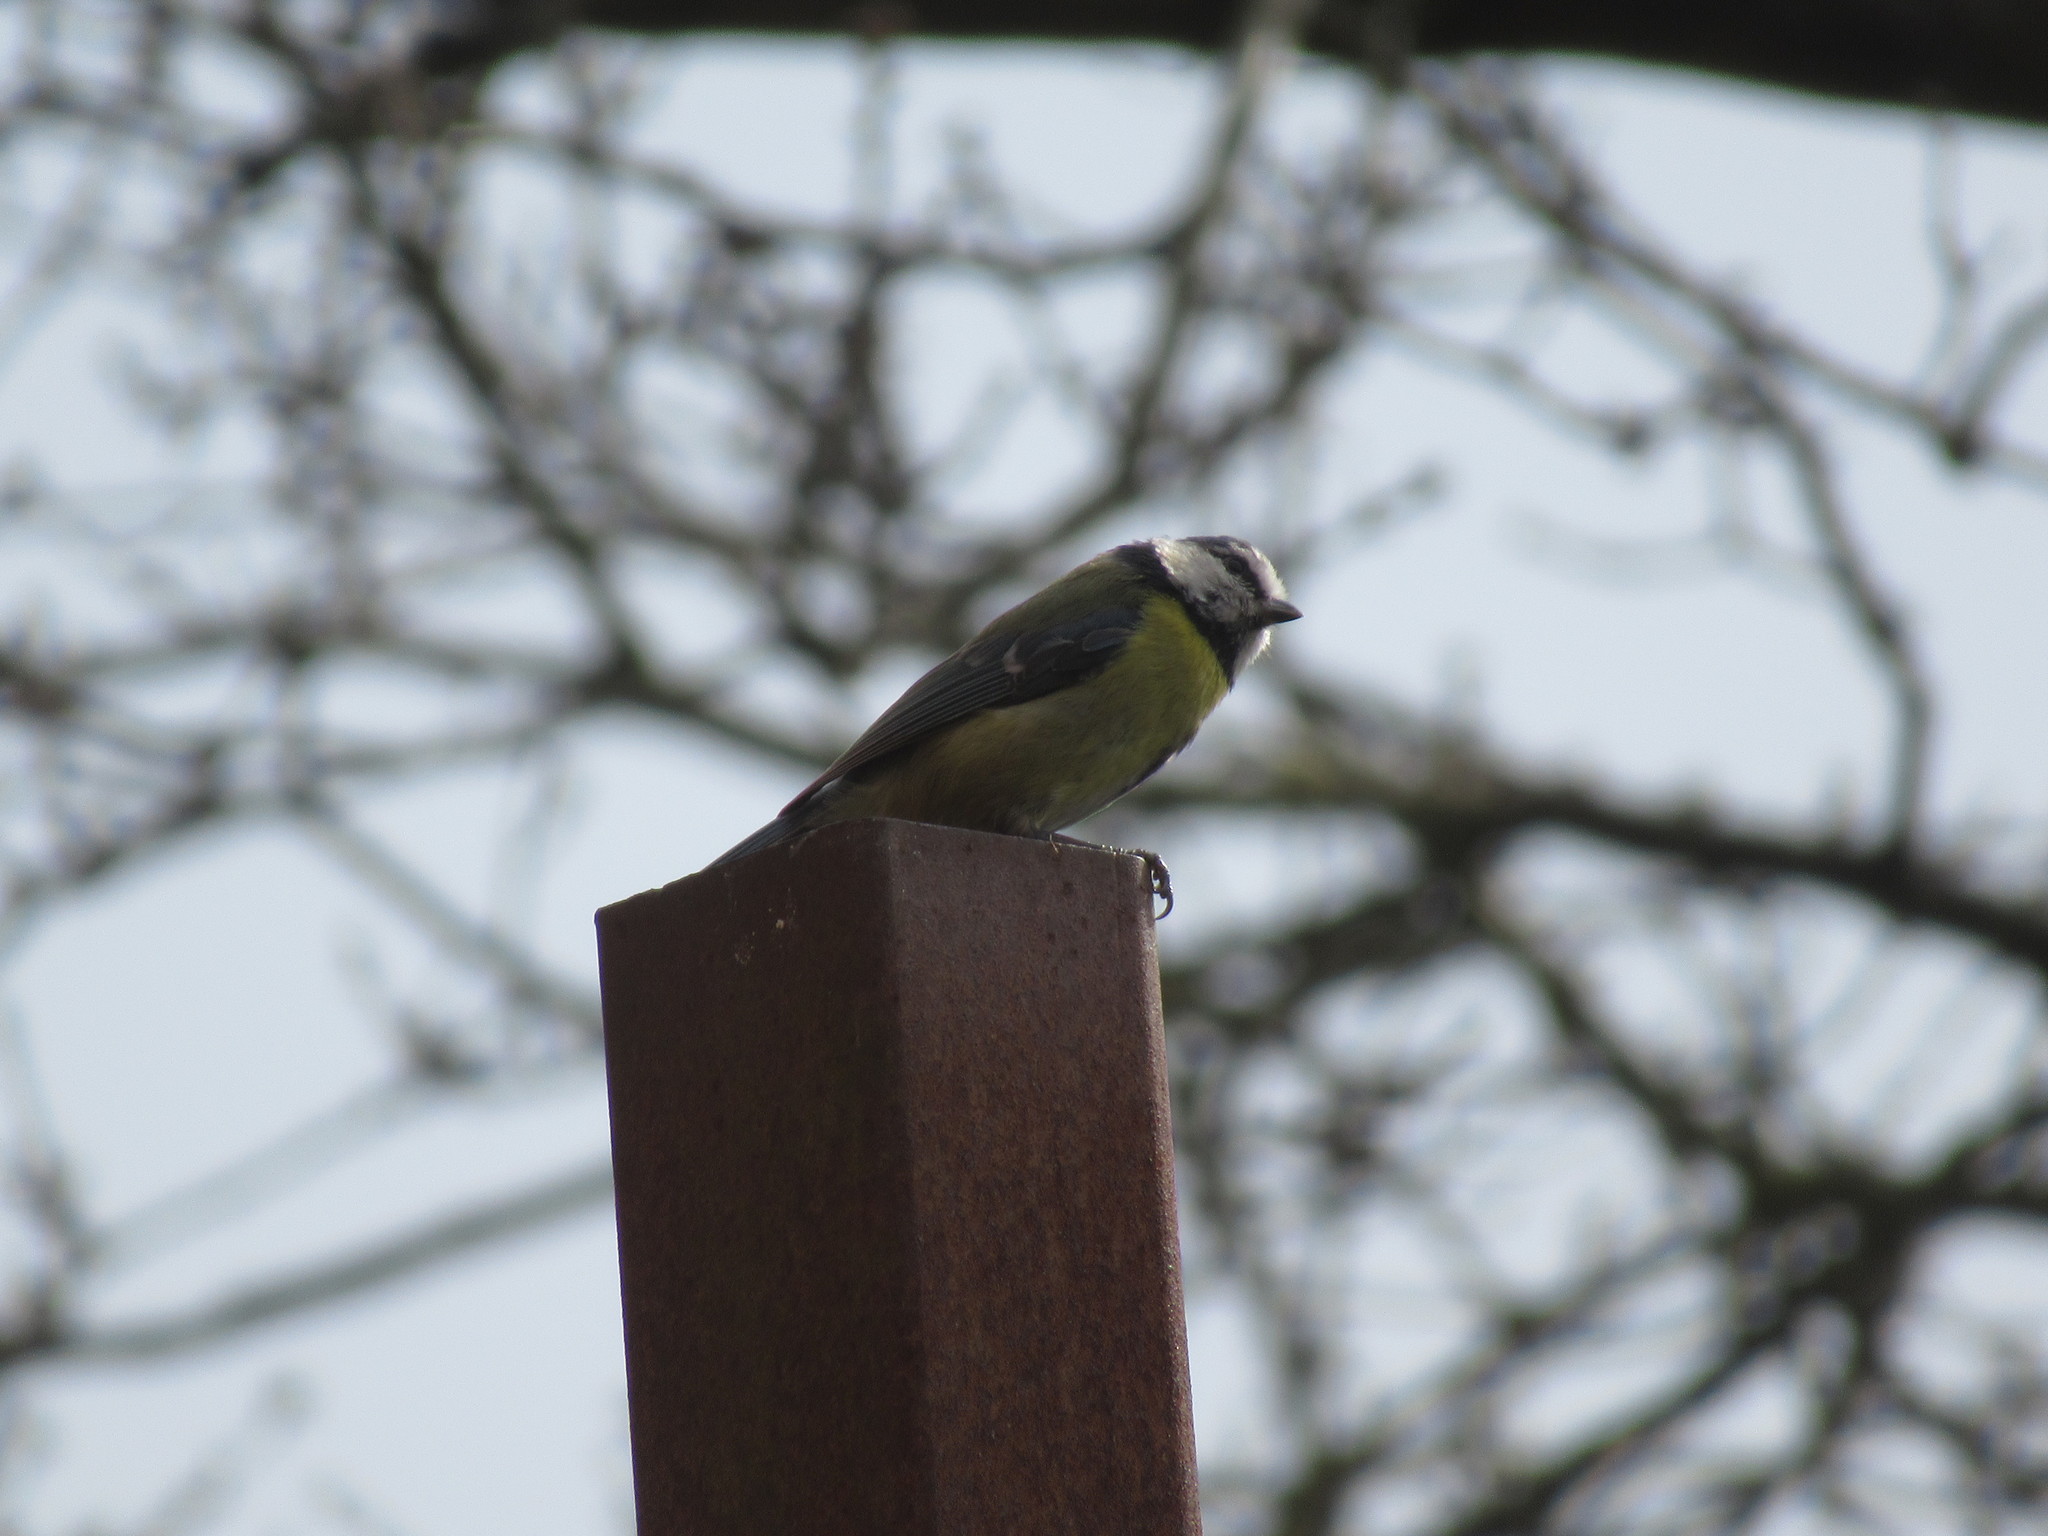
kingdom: Animalia
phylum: Chordata
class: Aves
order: Passeriformes
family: Paridae
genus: Cyanistes
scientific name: Cyanistes caeruleus
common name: Eurasian blue tit
